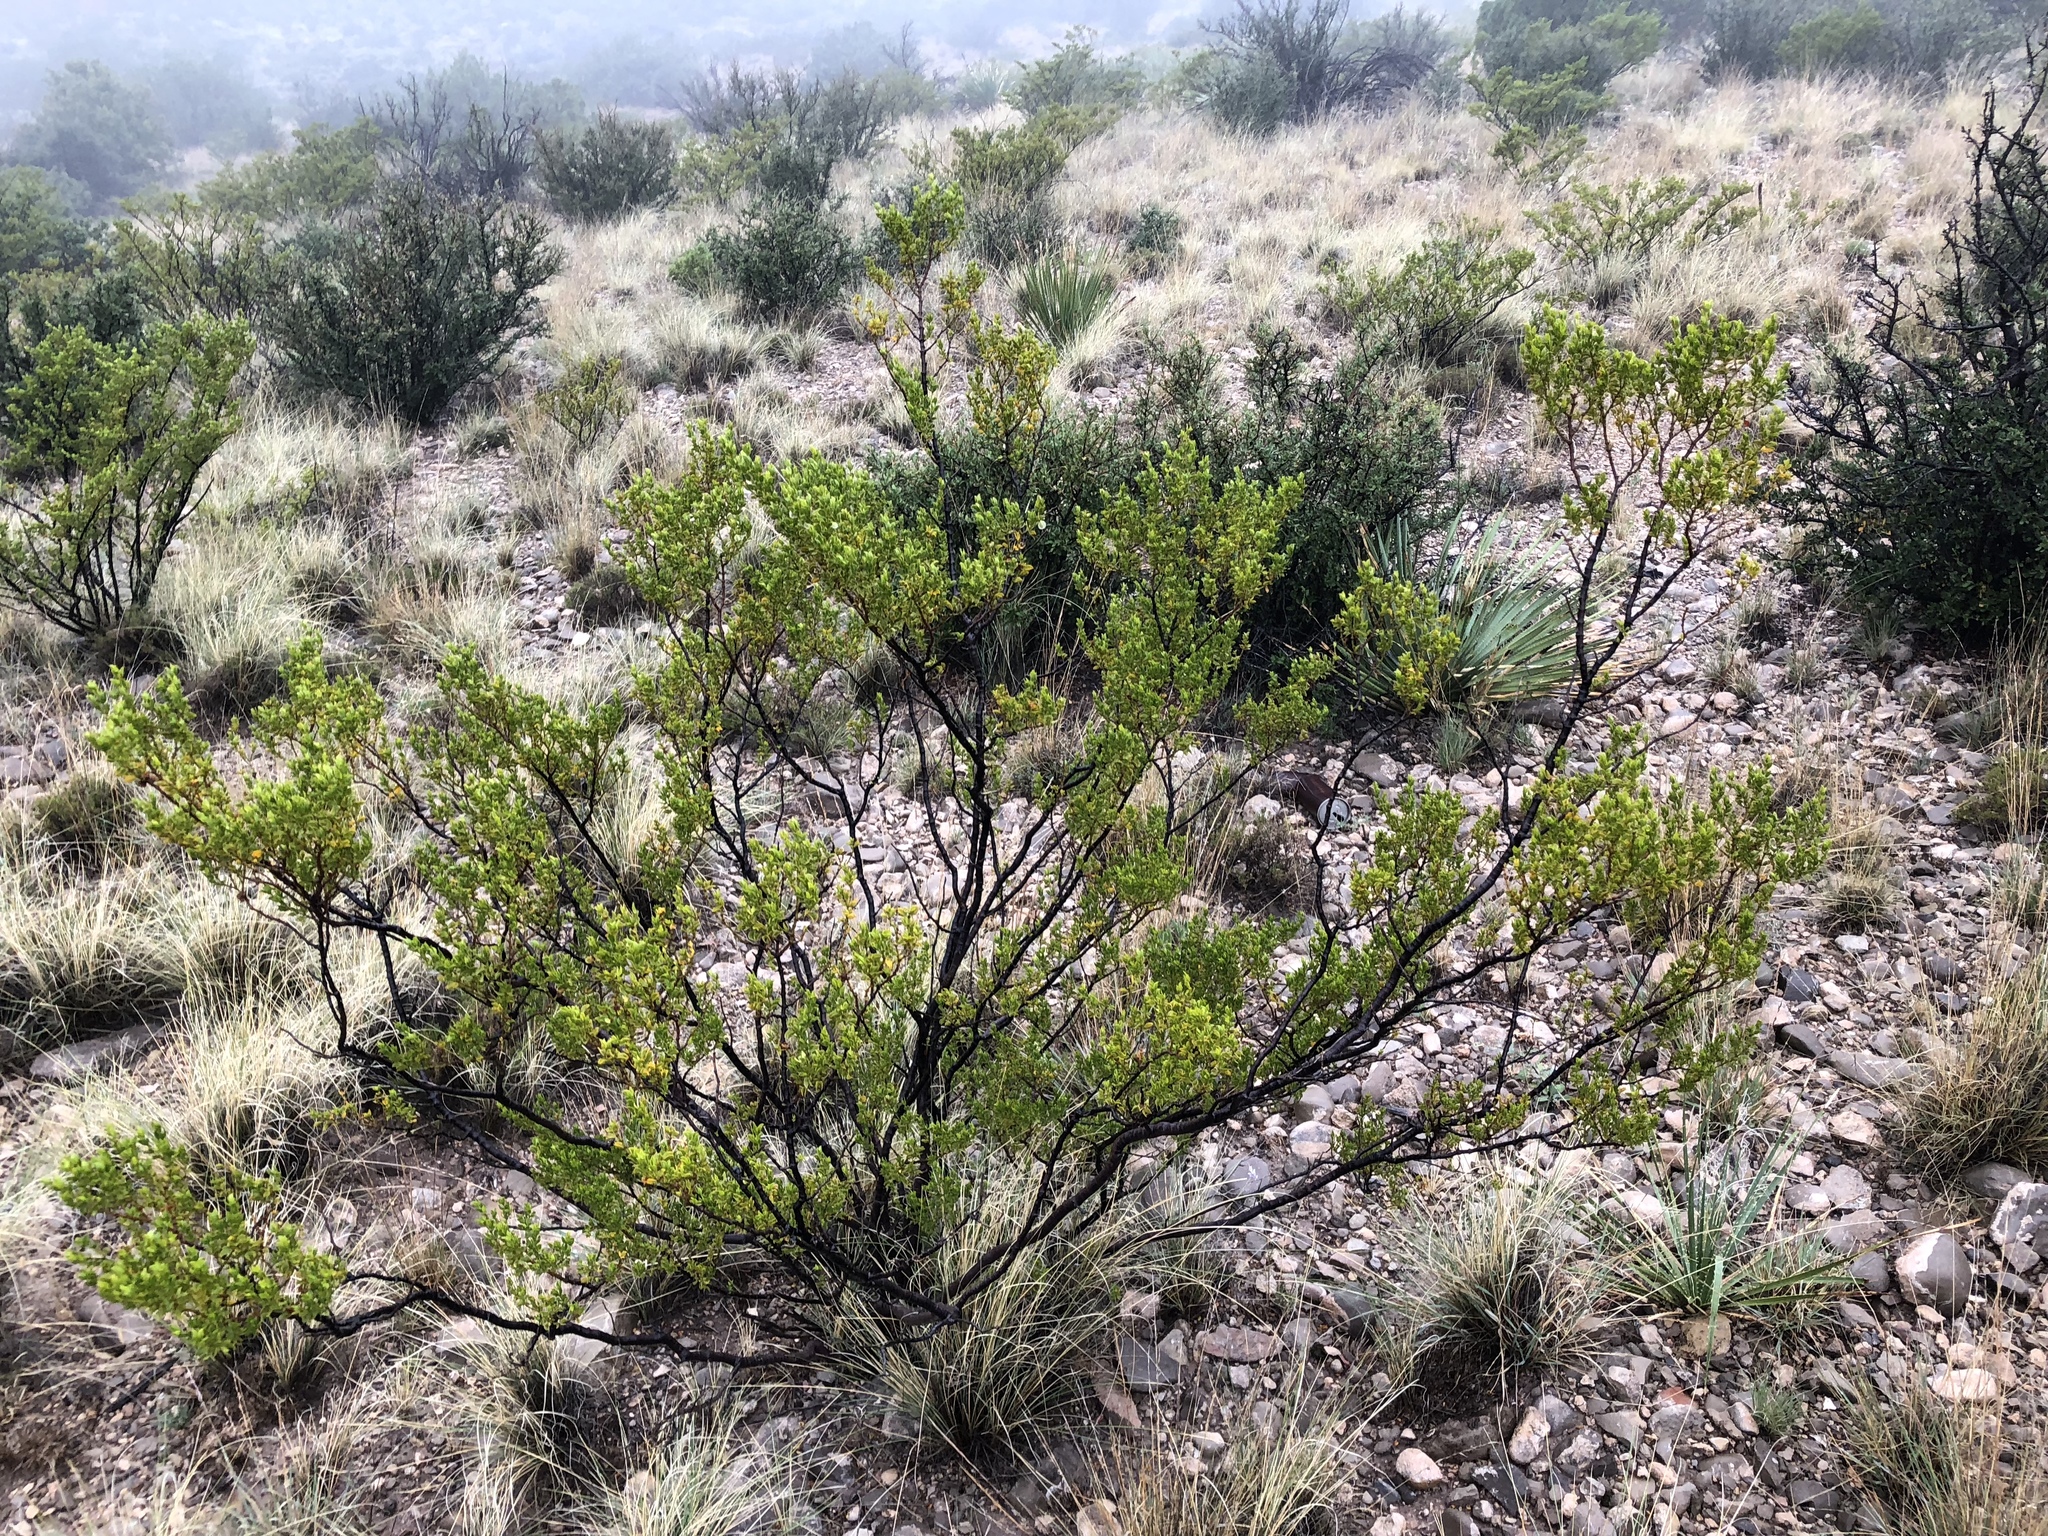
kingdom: Plantae
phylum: Tracheophyta
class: Magnoliopsida
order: Zygophyllales
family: Zygophyllaceae
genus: Larrea
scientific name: Larrea tridentata
